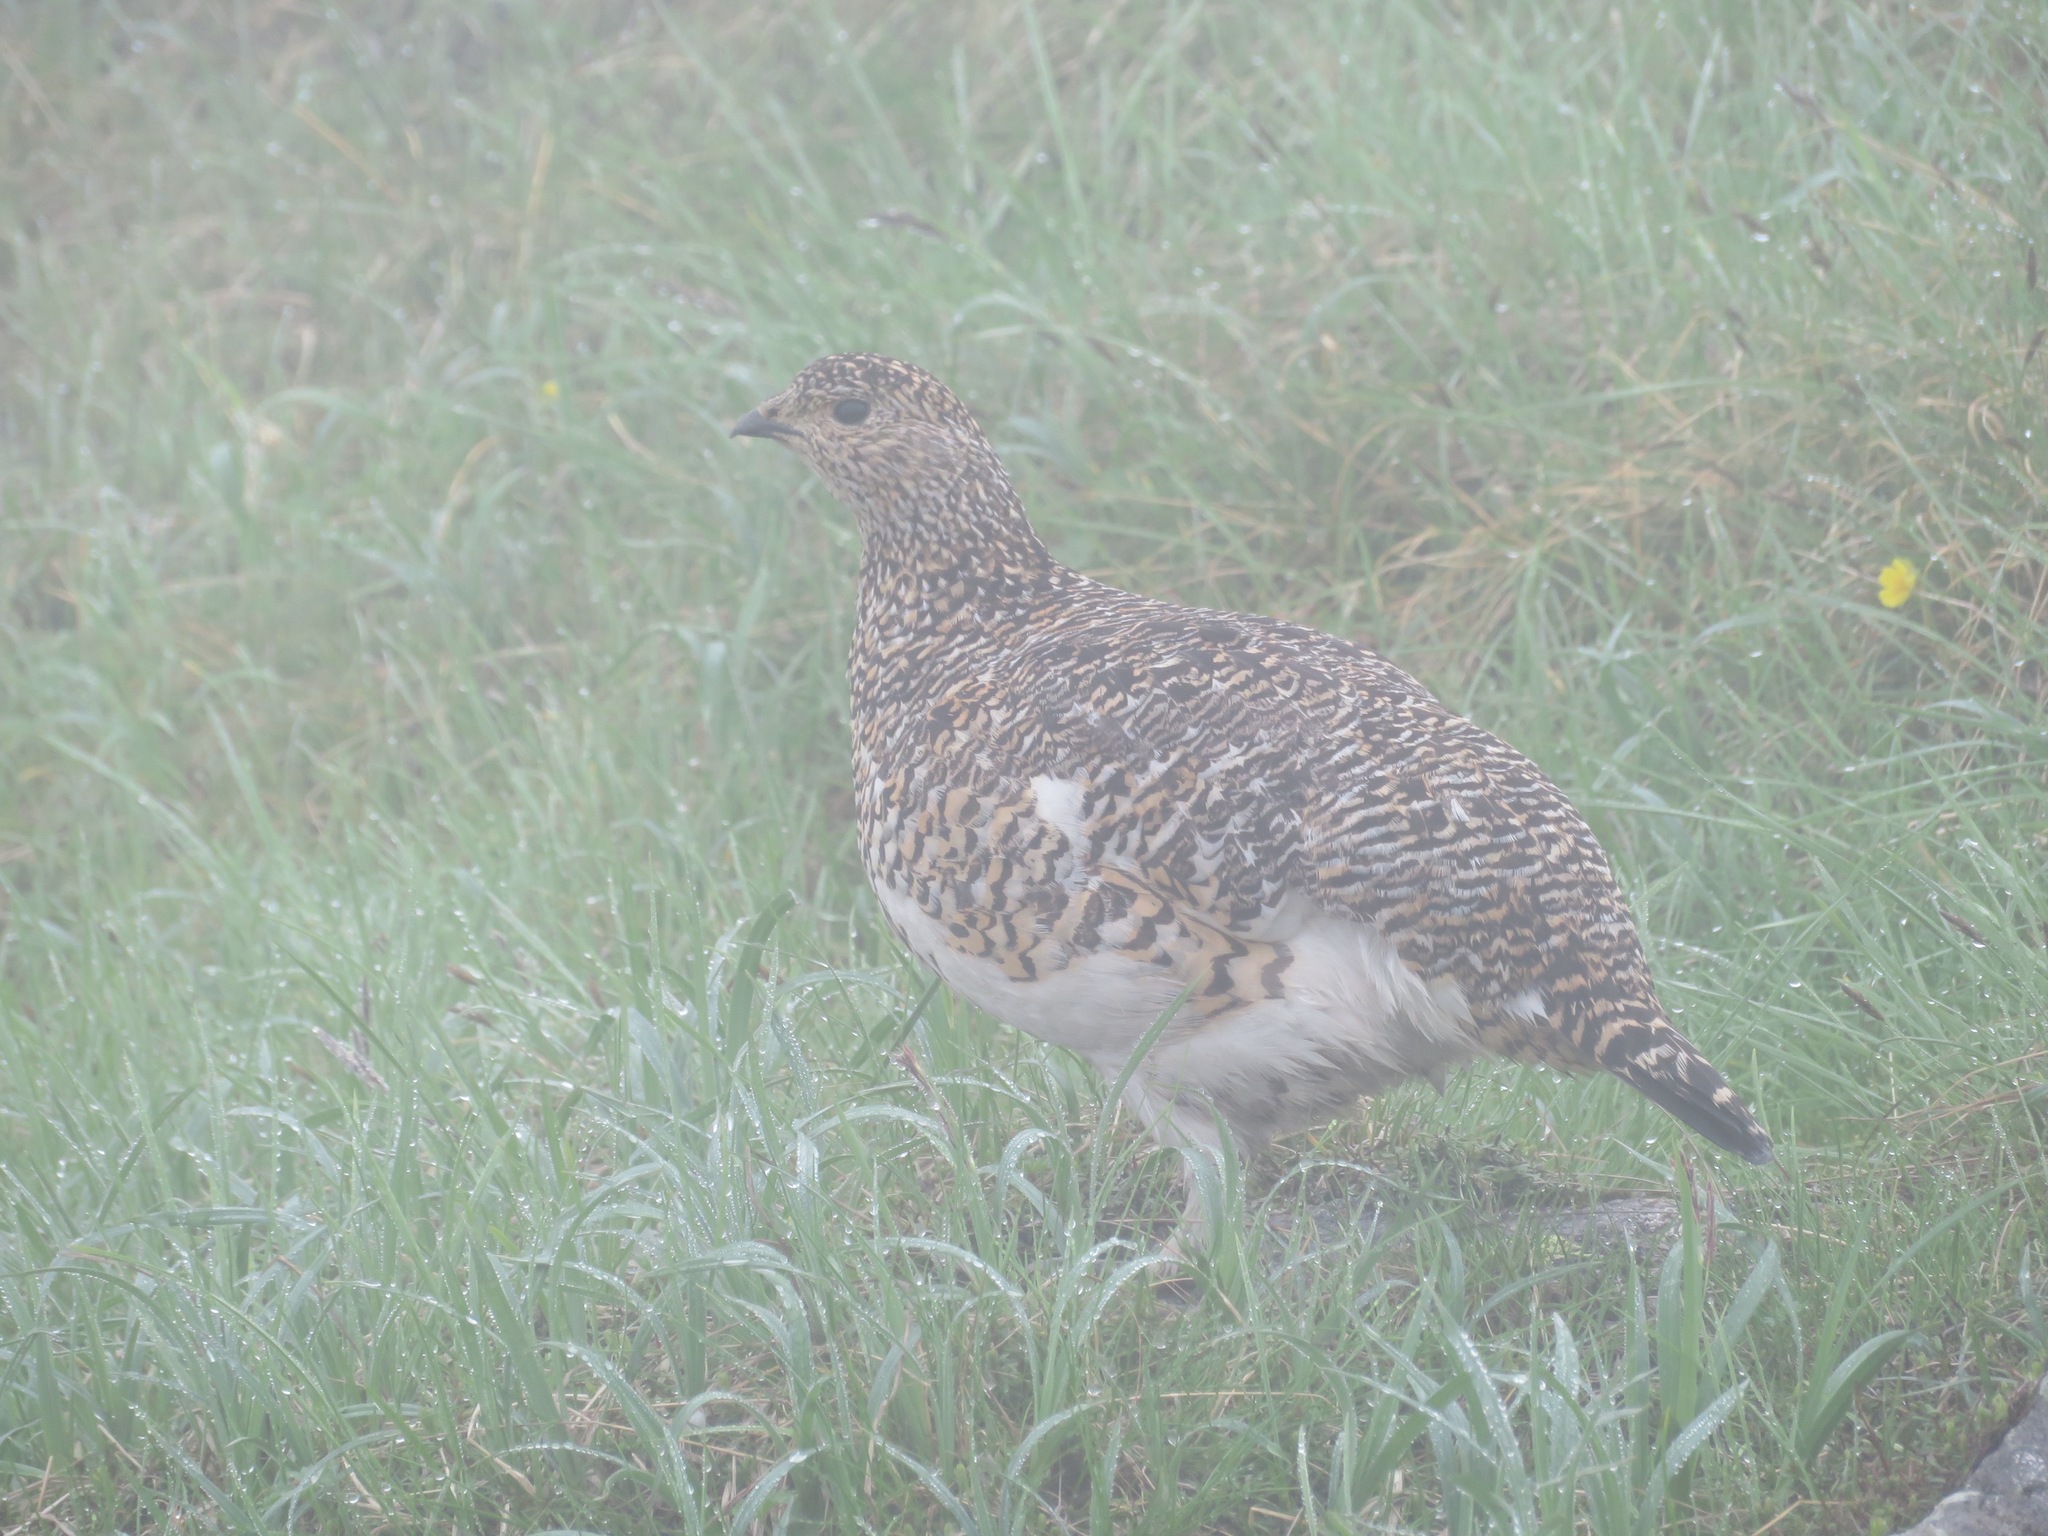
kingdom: Animalia
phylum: Chordata
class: Aves
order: Galliformes
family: Phasianidae
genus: Lagopus
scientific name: Lagopus muta
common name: Rock ptarmigan
